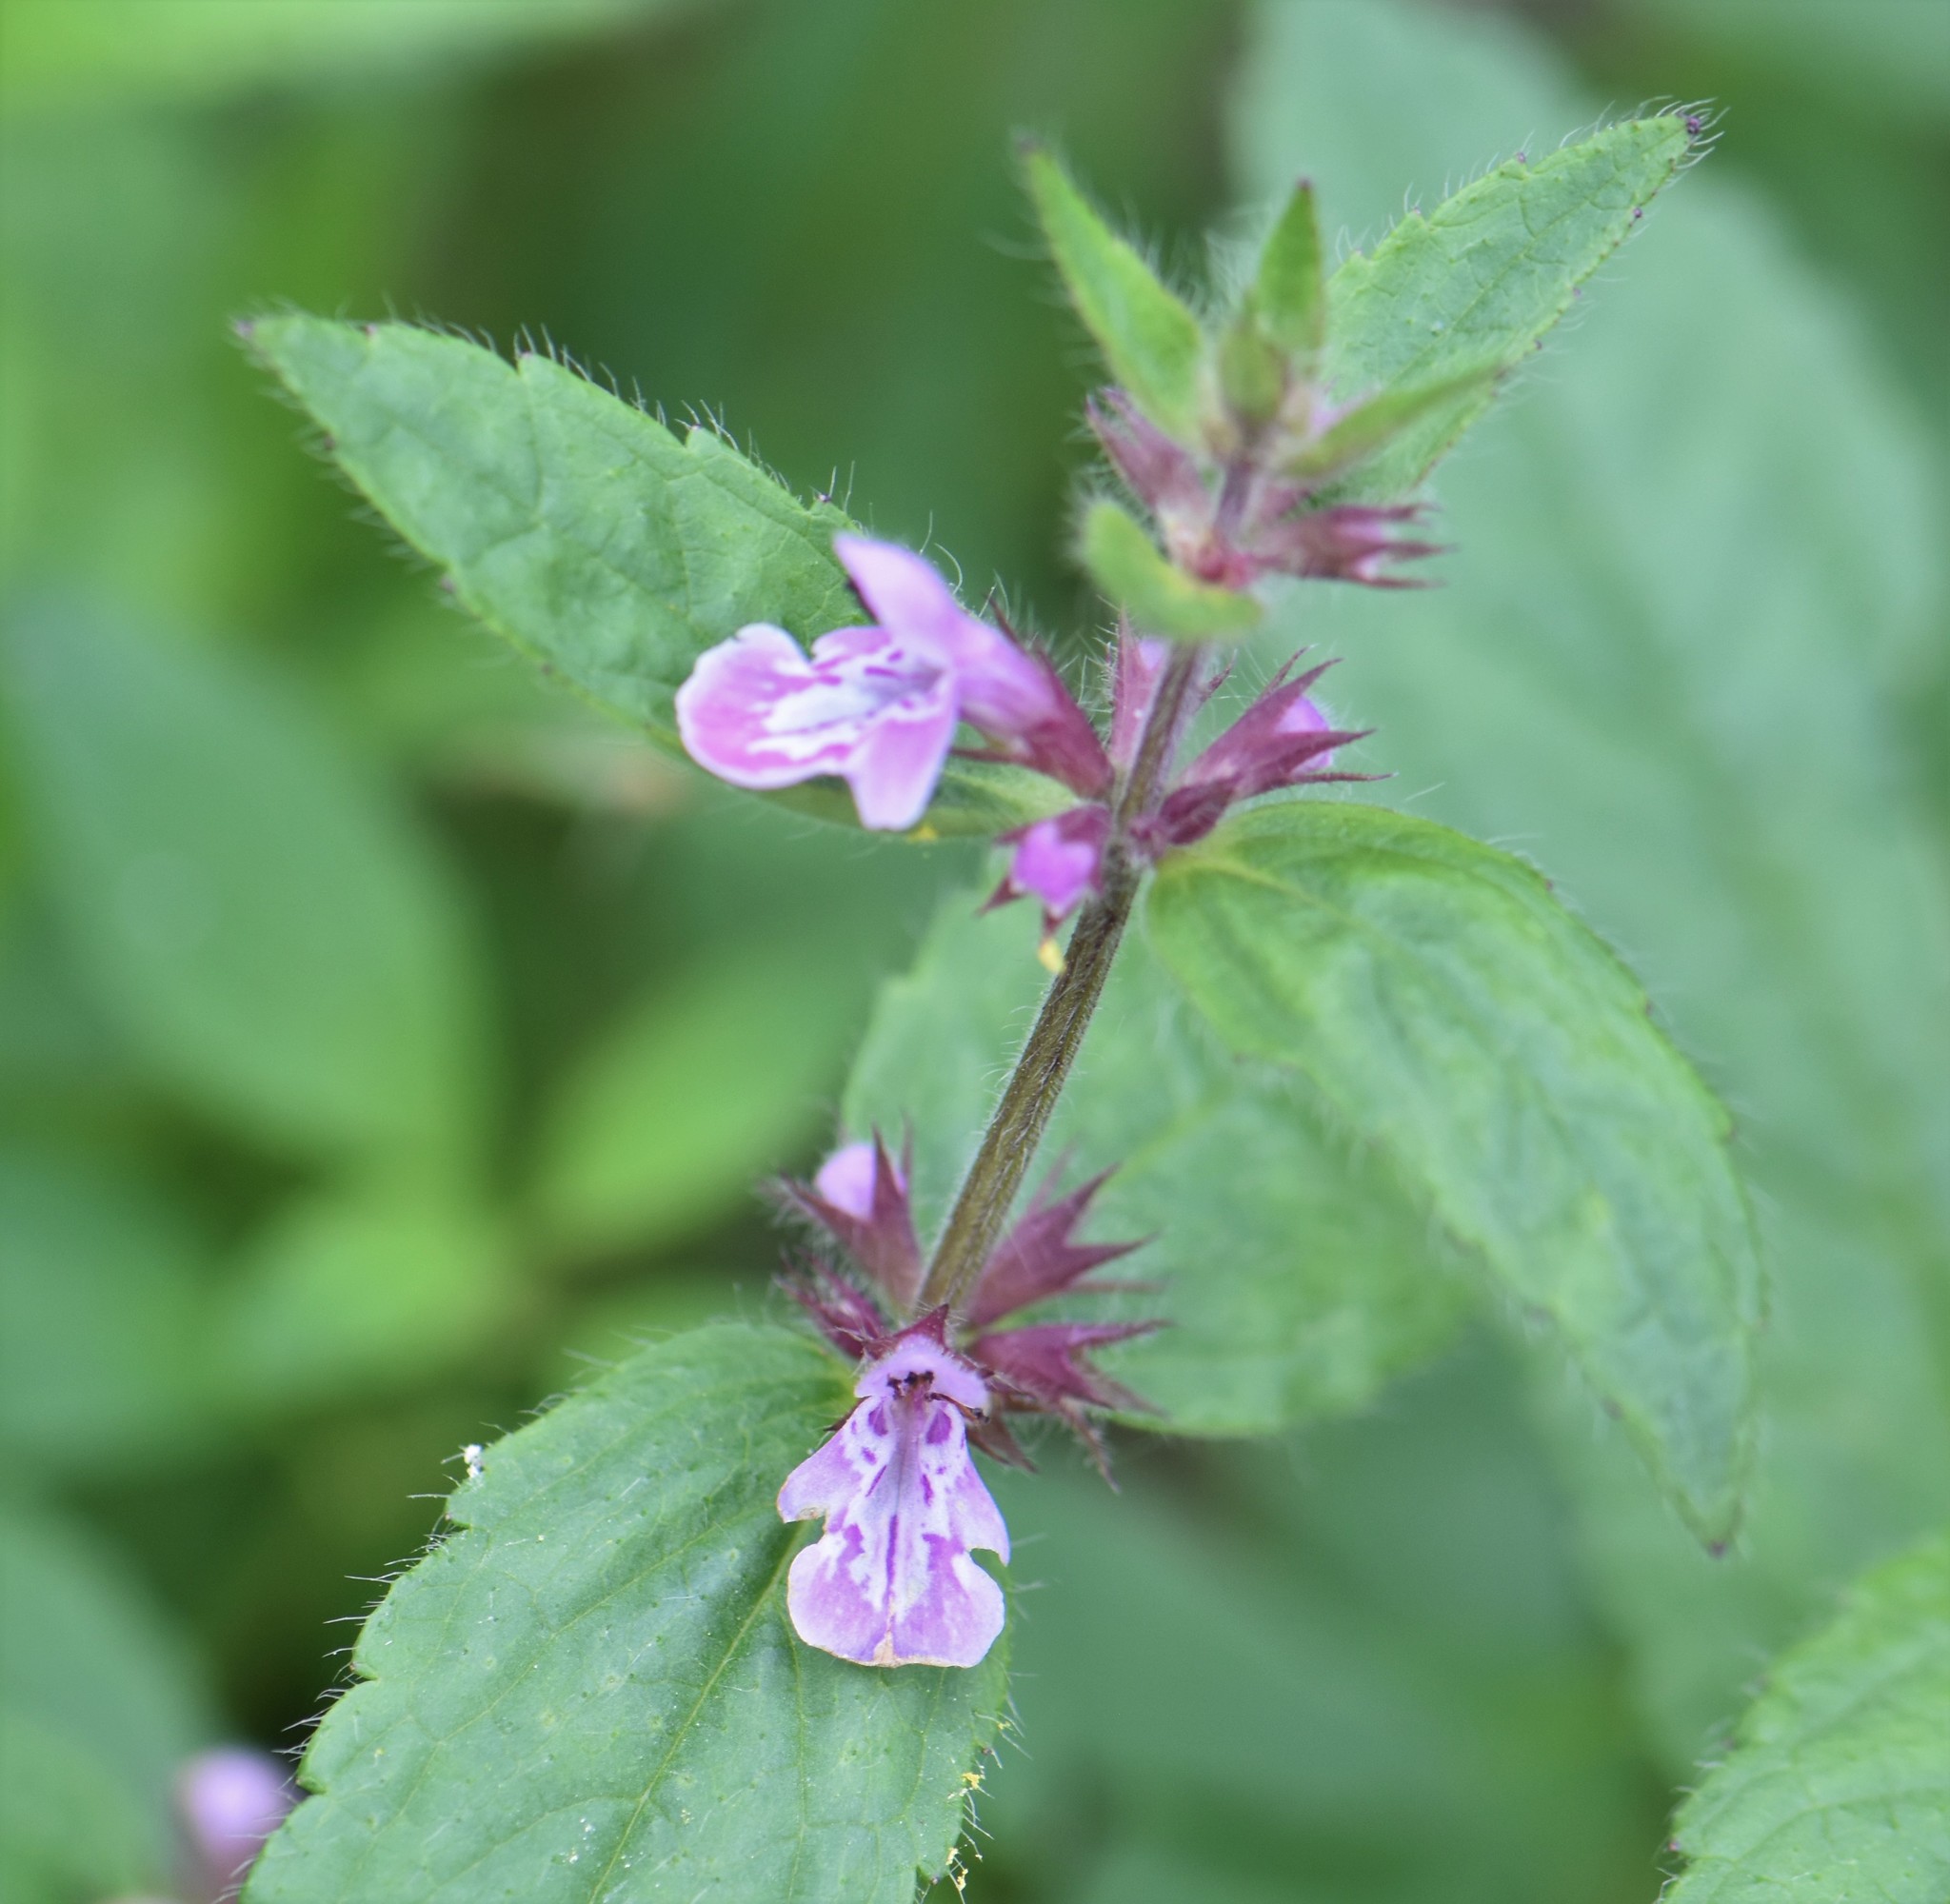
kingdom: Plantae
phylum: Tracheophyta
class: Magnoliopsida
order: Lamiales
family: Lamiaceae
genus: Stachys
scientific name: Stachys pilosa
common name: Hairy hedge-nettle
